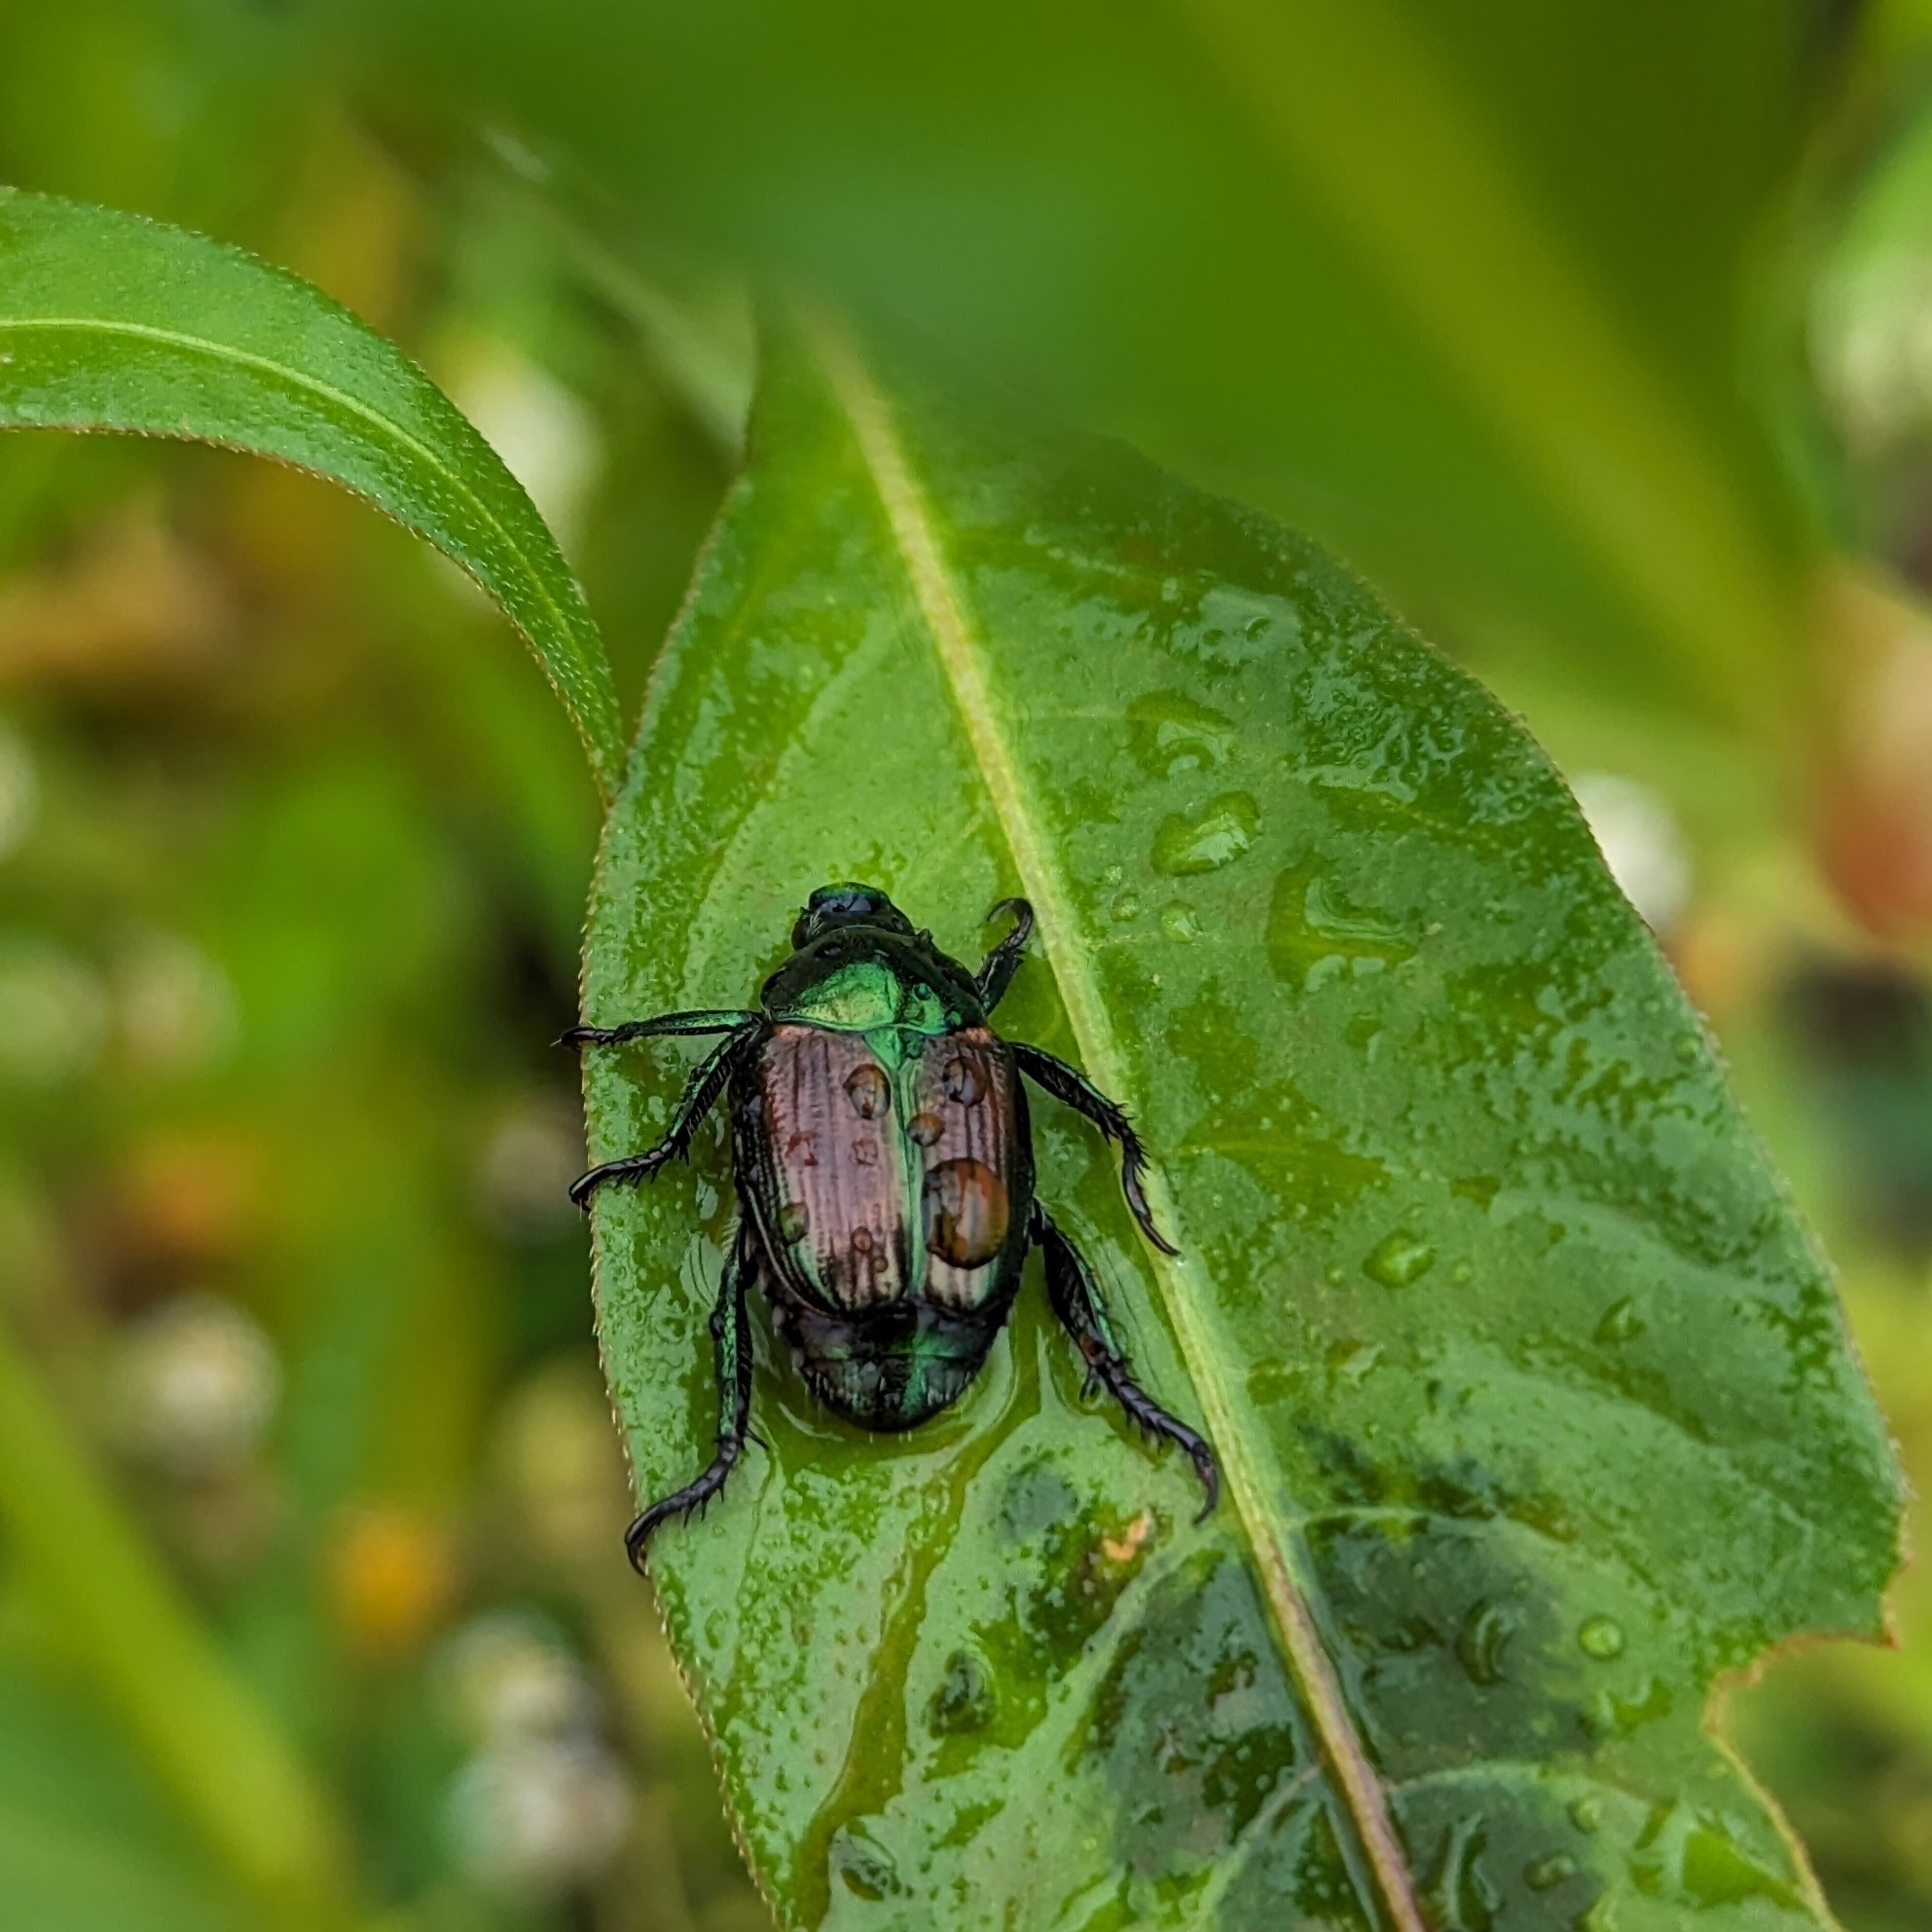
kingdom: Animalia
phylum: Arthropoda
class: Insecta
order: Coleoptera
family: Scarabaeidae
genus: Popillia
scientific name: Popillia japonica
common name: Japanese beetle
